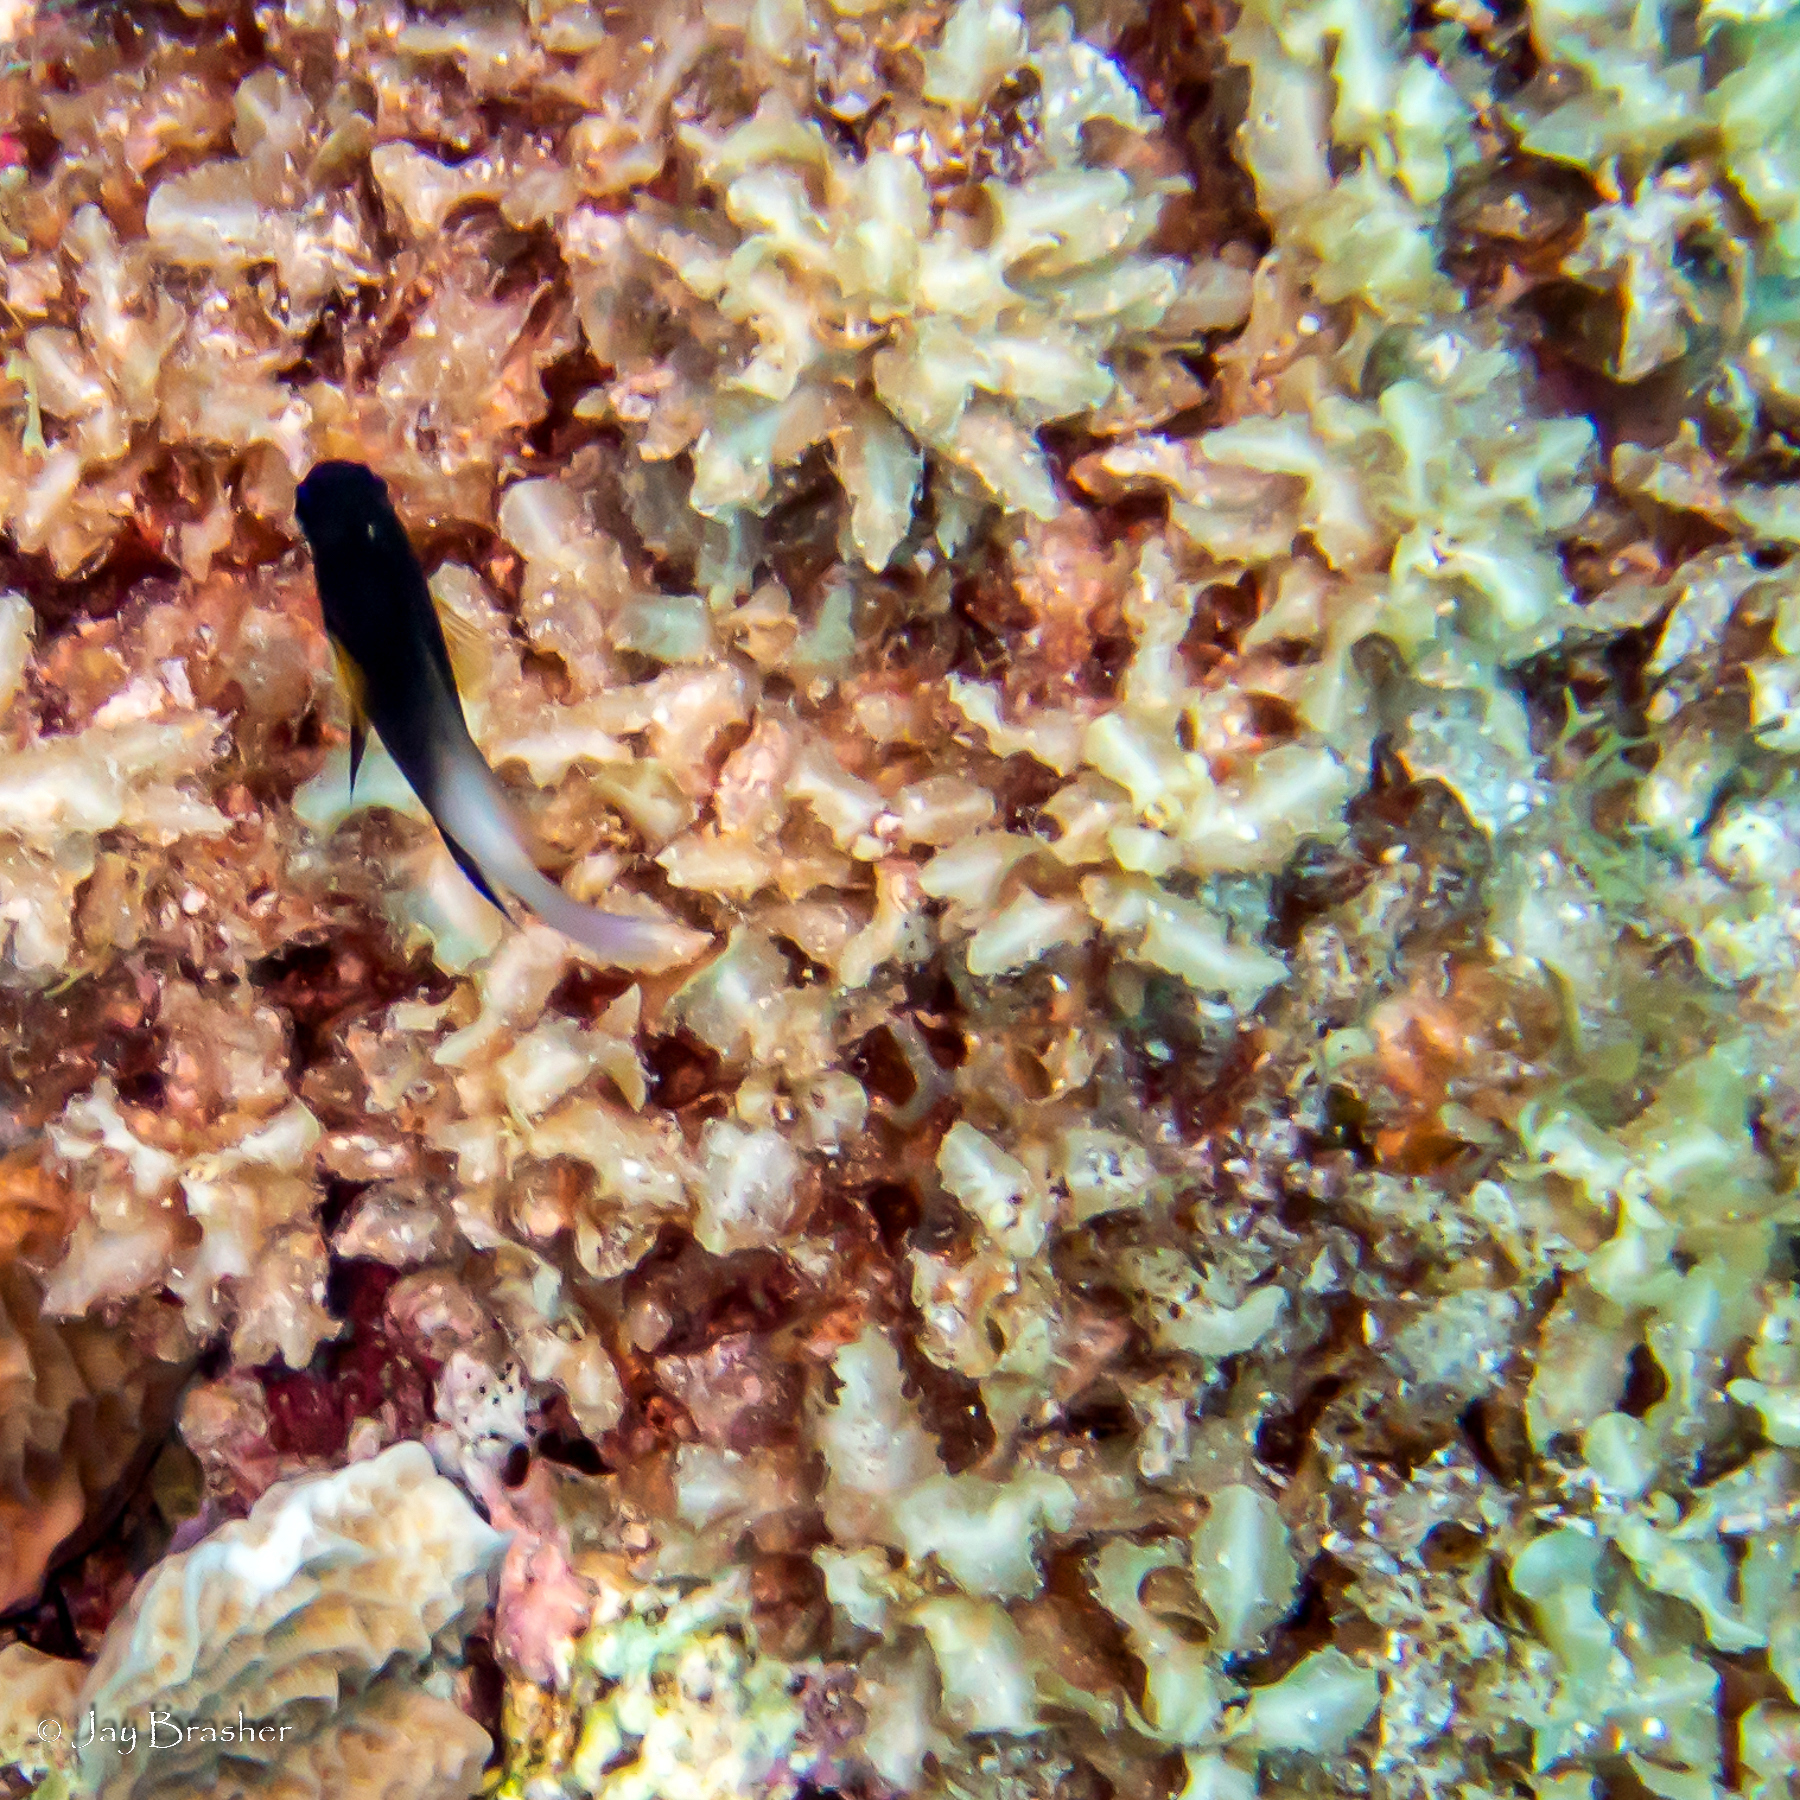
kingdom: Chromista
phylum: Ochrophyta
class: Phaeophyceae
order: Fucales
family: Sargassaceae
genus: Sargassum
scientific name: Sargassum hystrix
